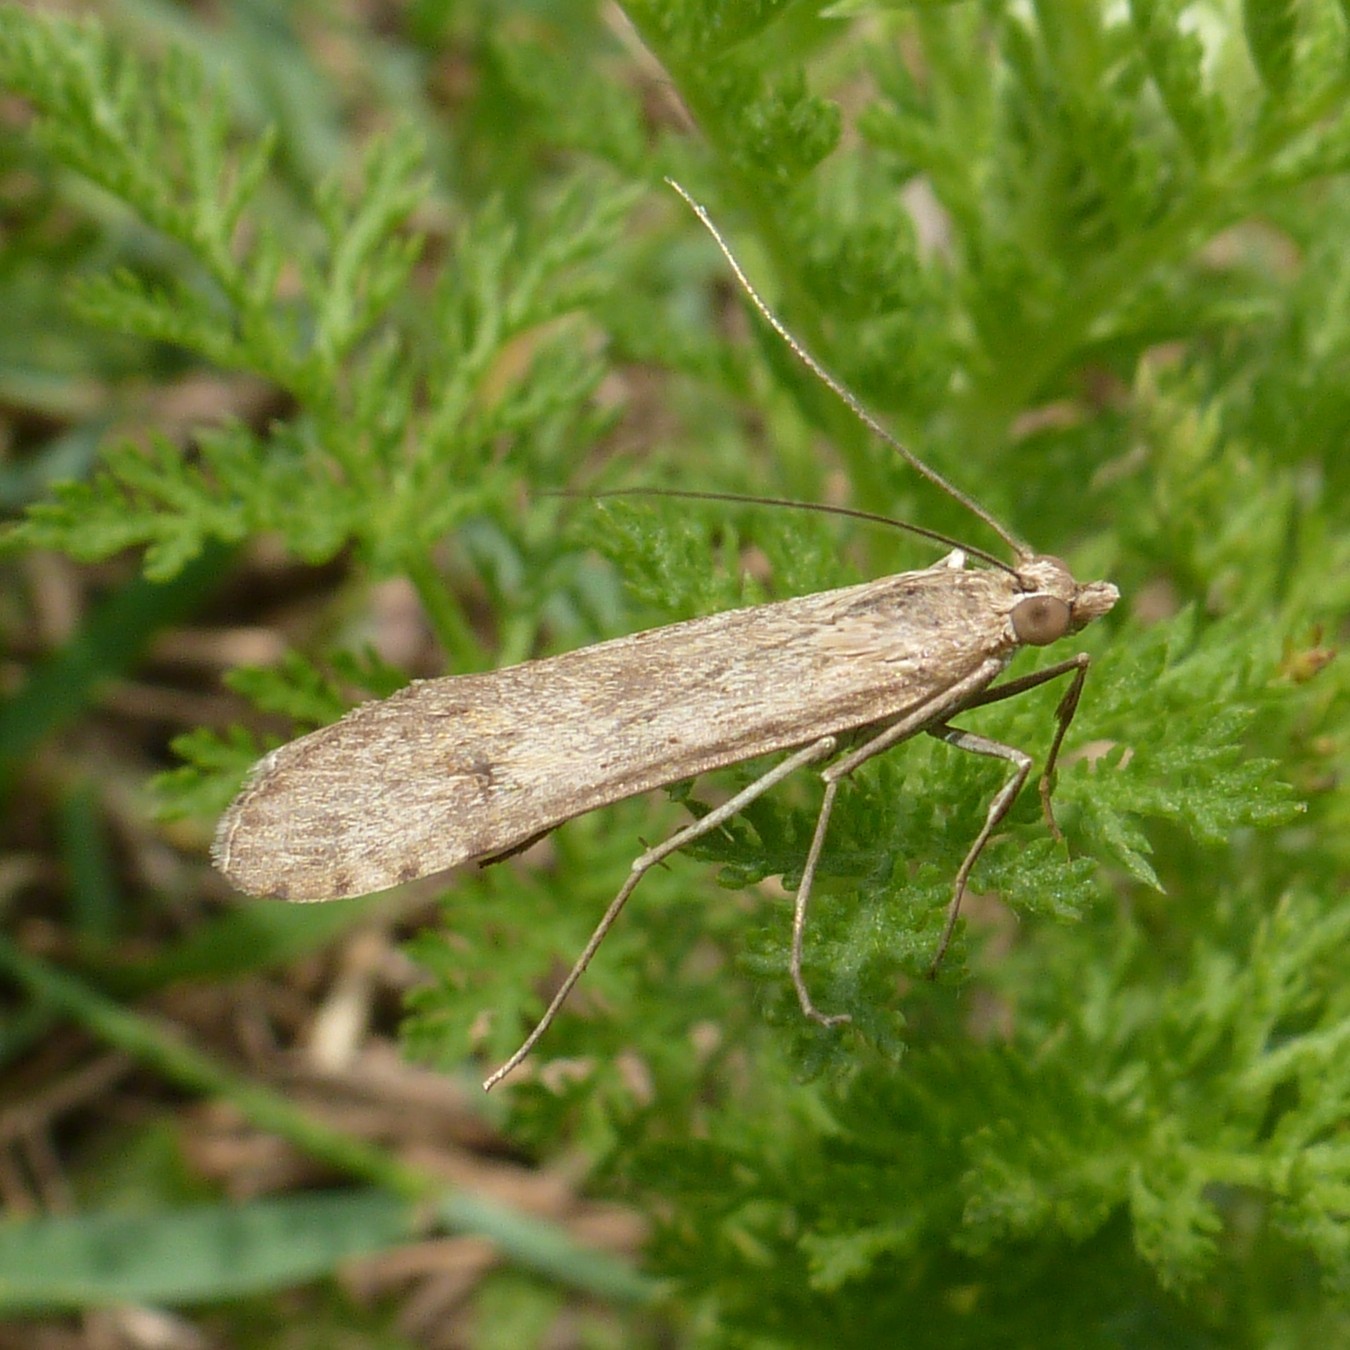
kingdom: Animalia
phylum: Arthropoda
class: Insecta
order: Lepidoptera
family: Crambidae
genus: Nomophila
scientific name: Nomophila noctuella
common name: Rush veneer
